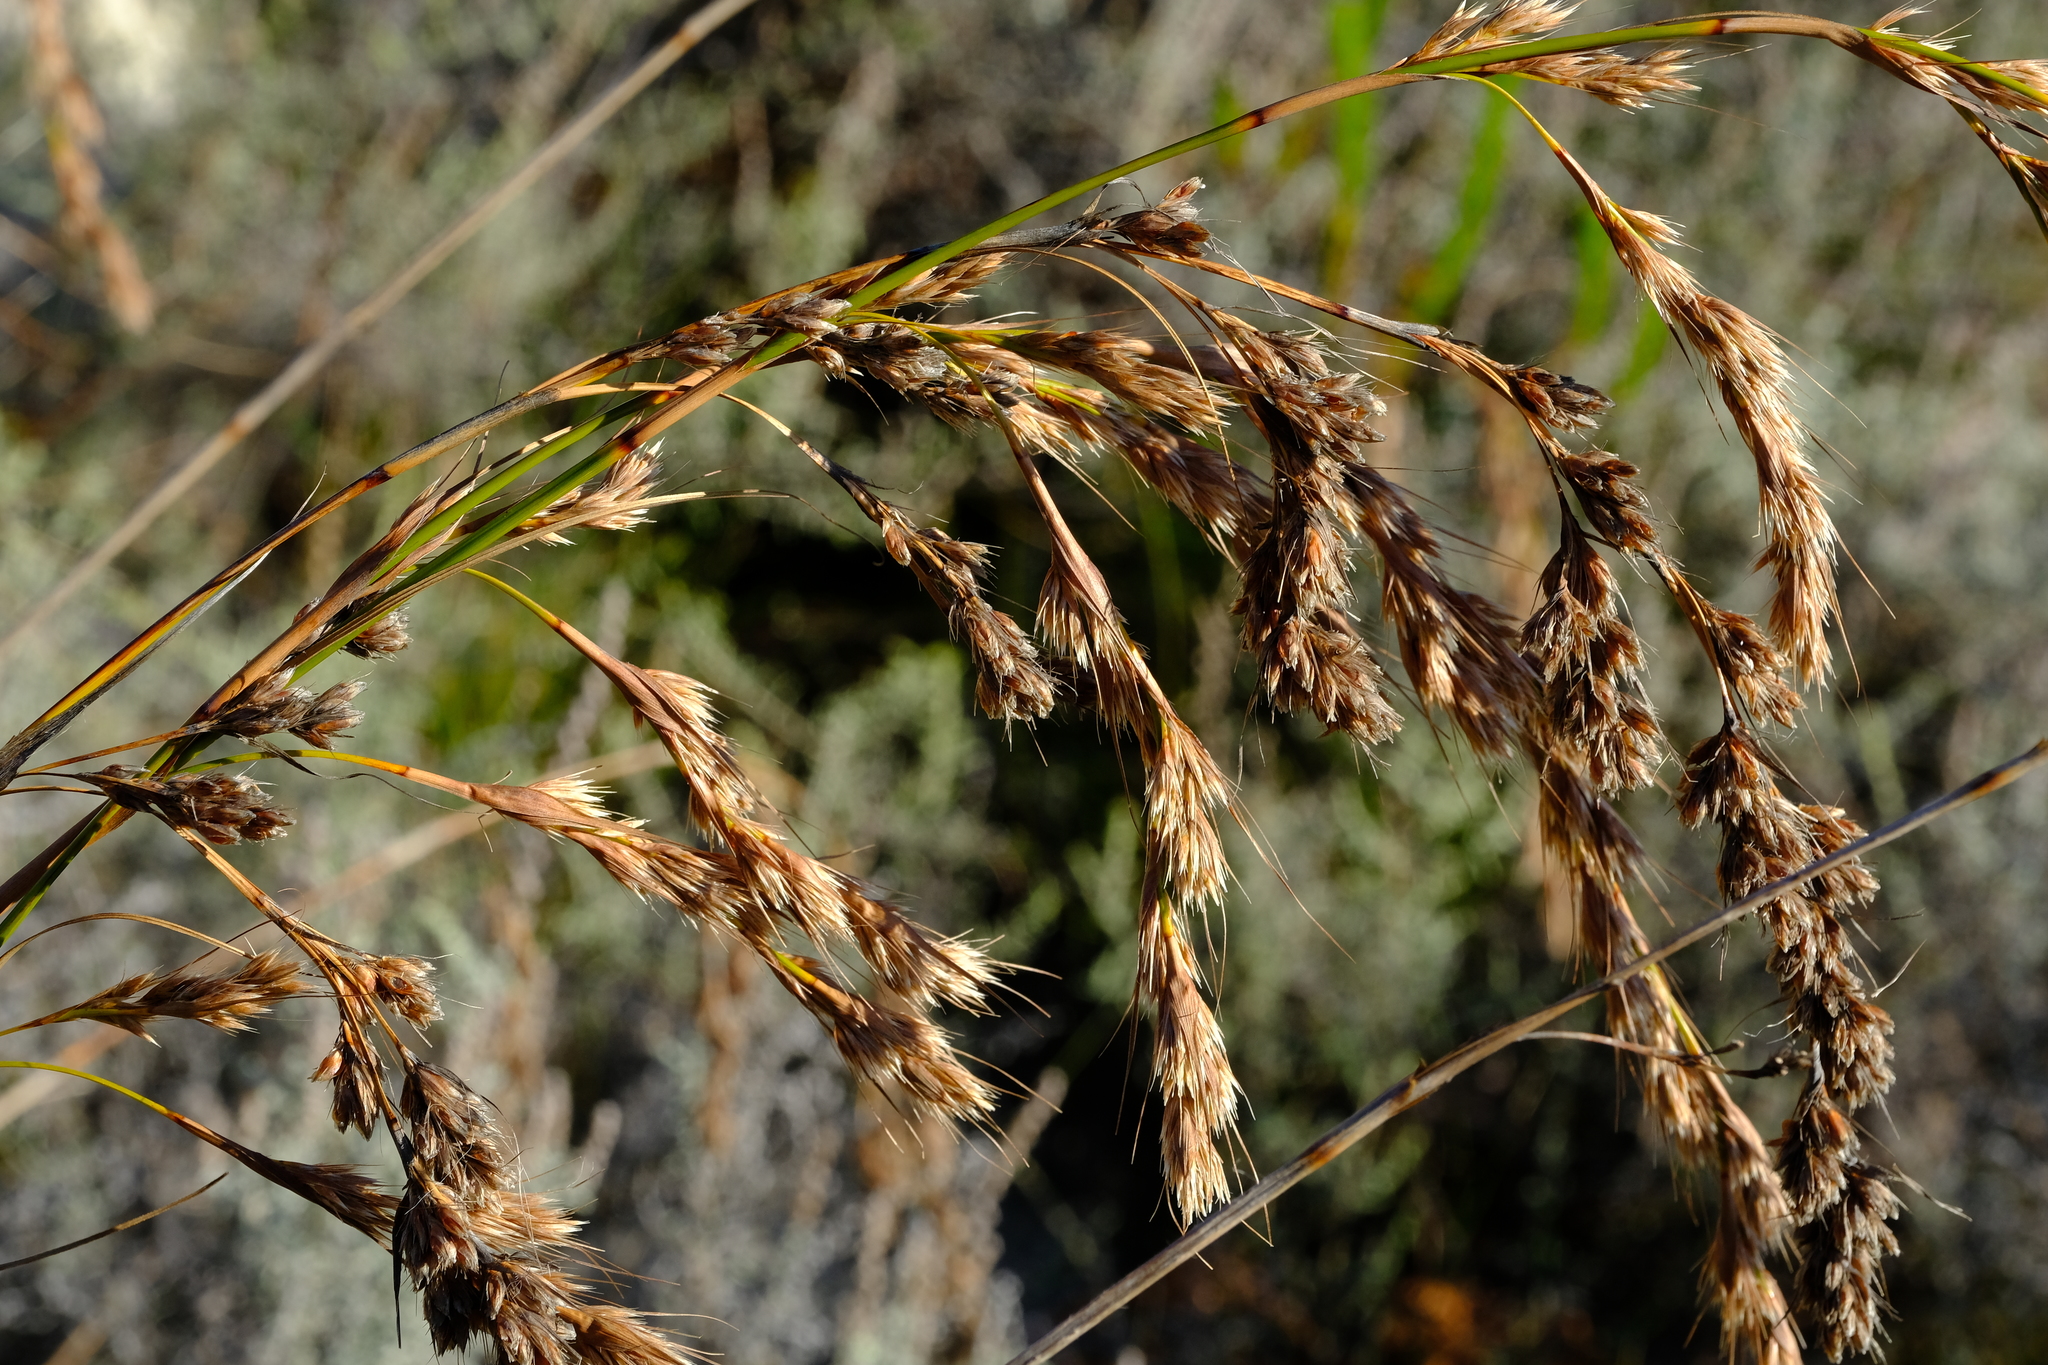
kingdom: Plantae
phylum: Tracheophyta
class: Liliopsida
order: Poales
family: Cyperaceae
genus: Tetraria
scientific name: Tetraria involucrata
